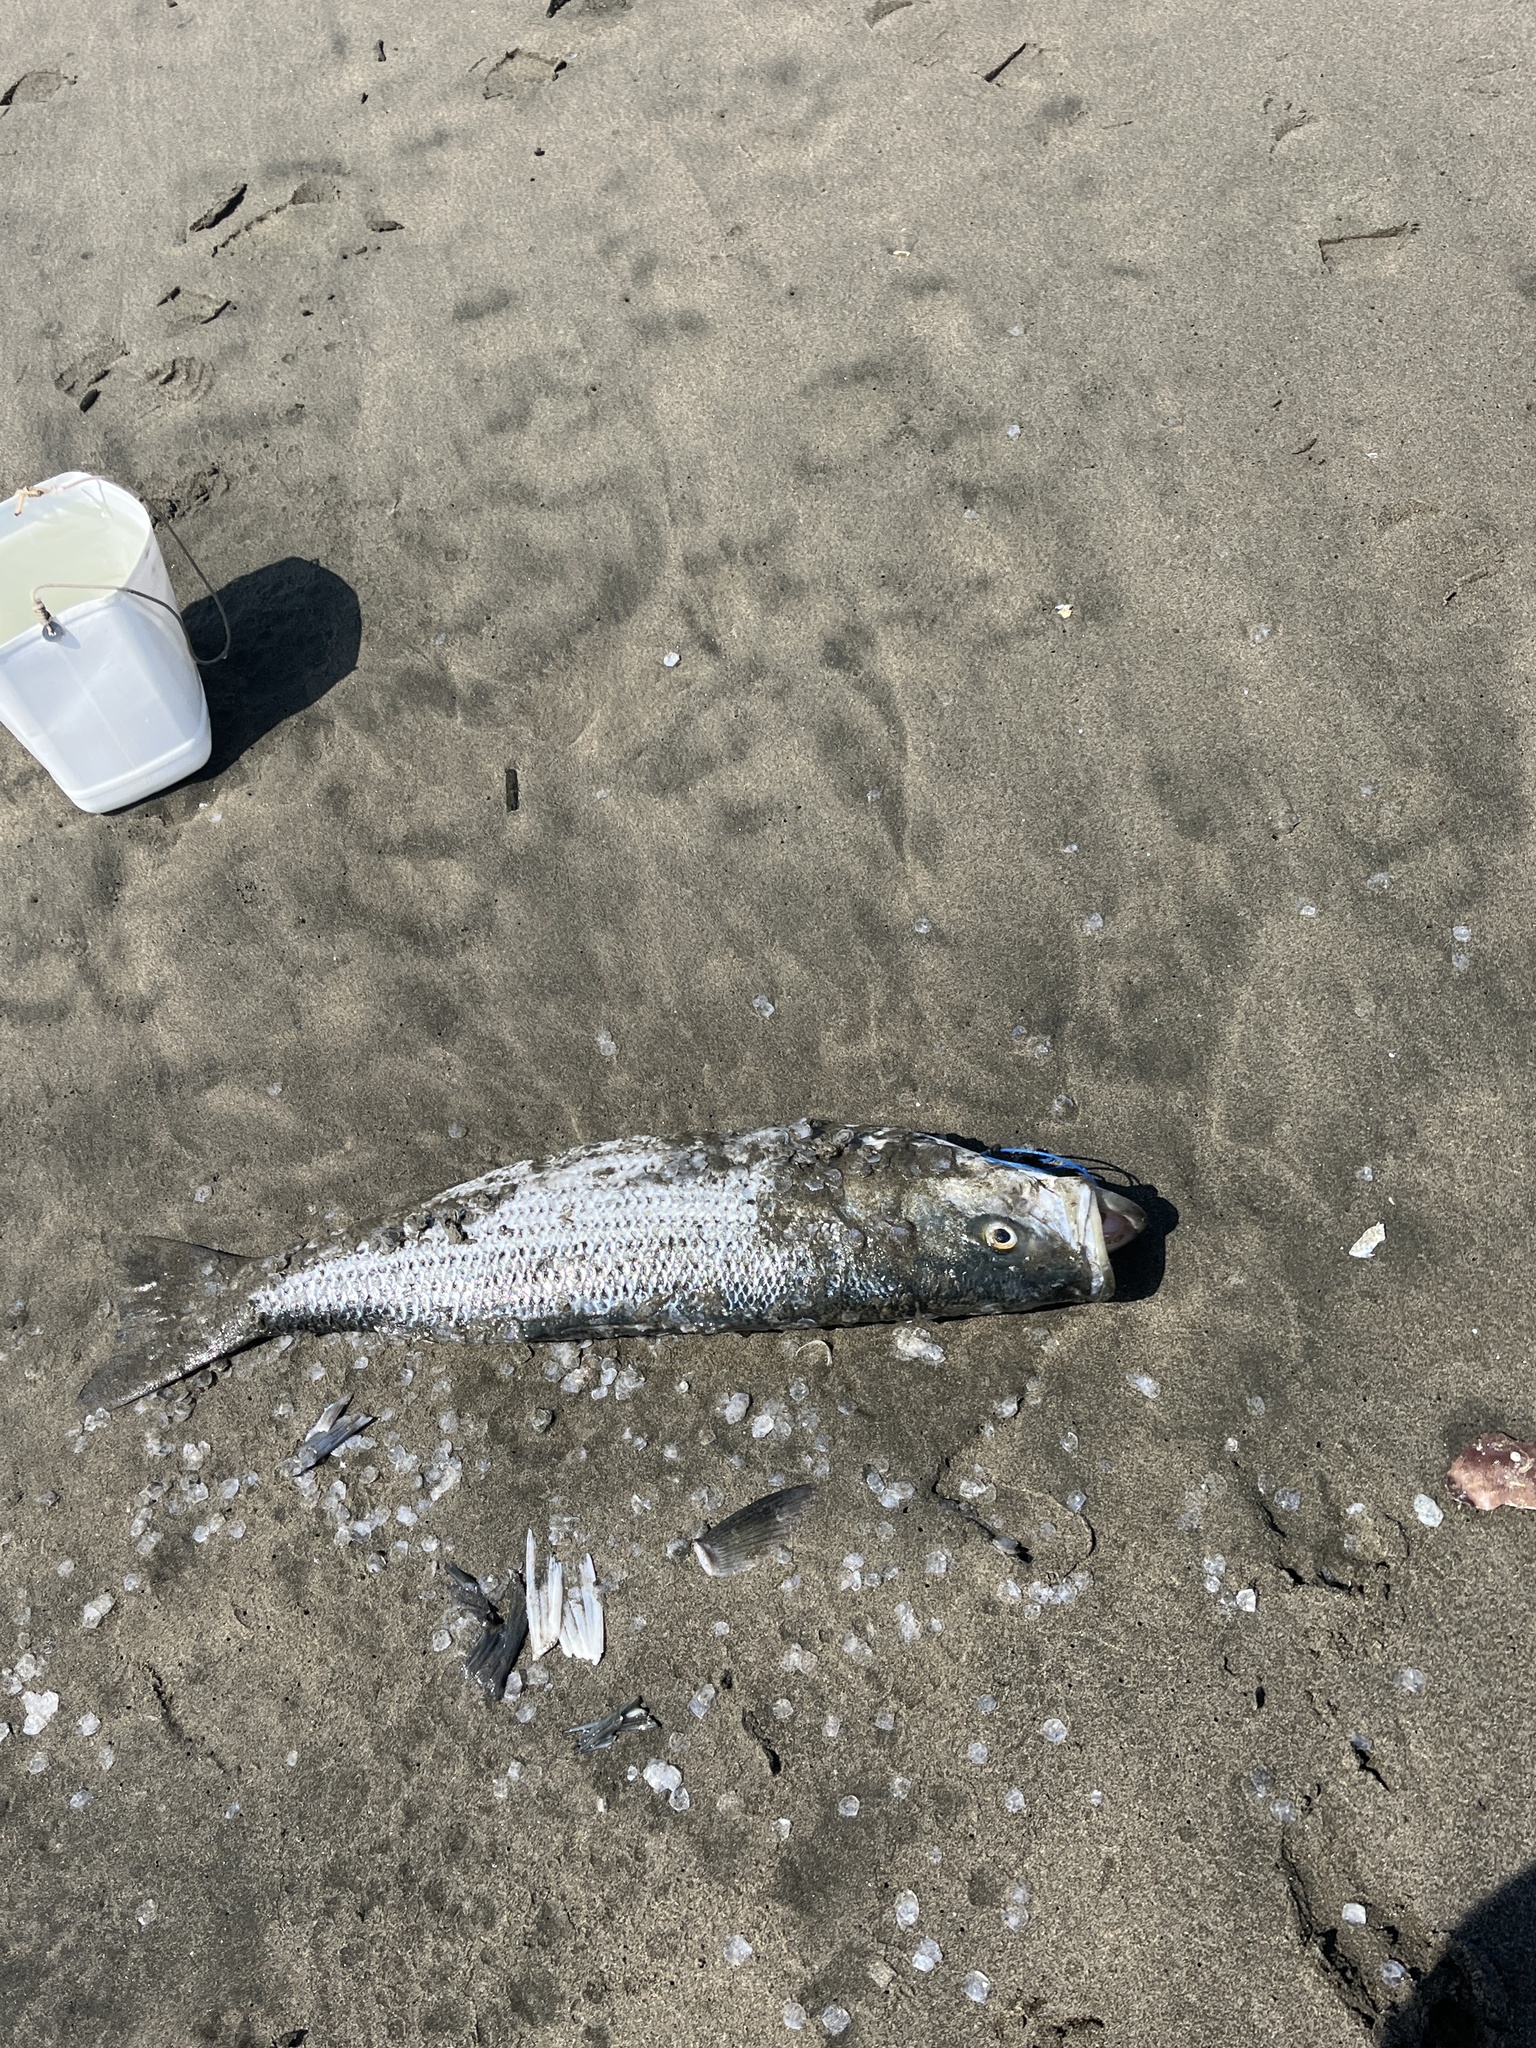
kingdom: Animalia
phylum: Chordata
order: Perciformes
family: Moronidae
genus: Morone
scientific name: Morone saxatilis
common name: Striped bass
